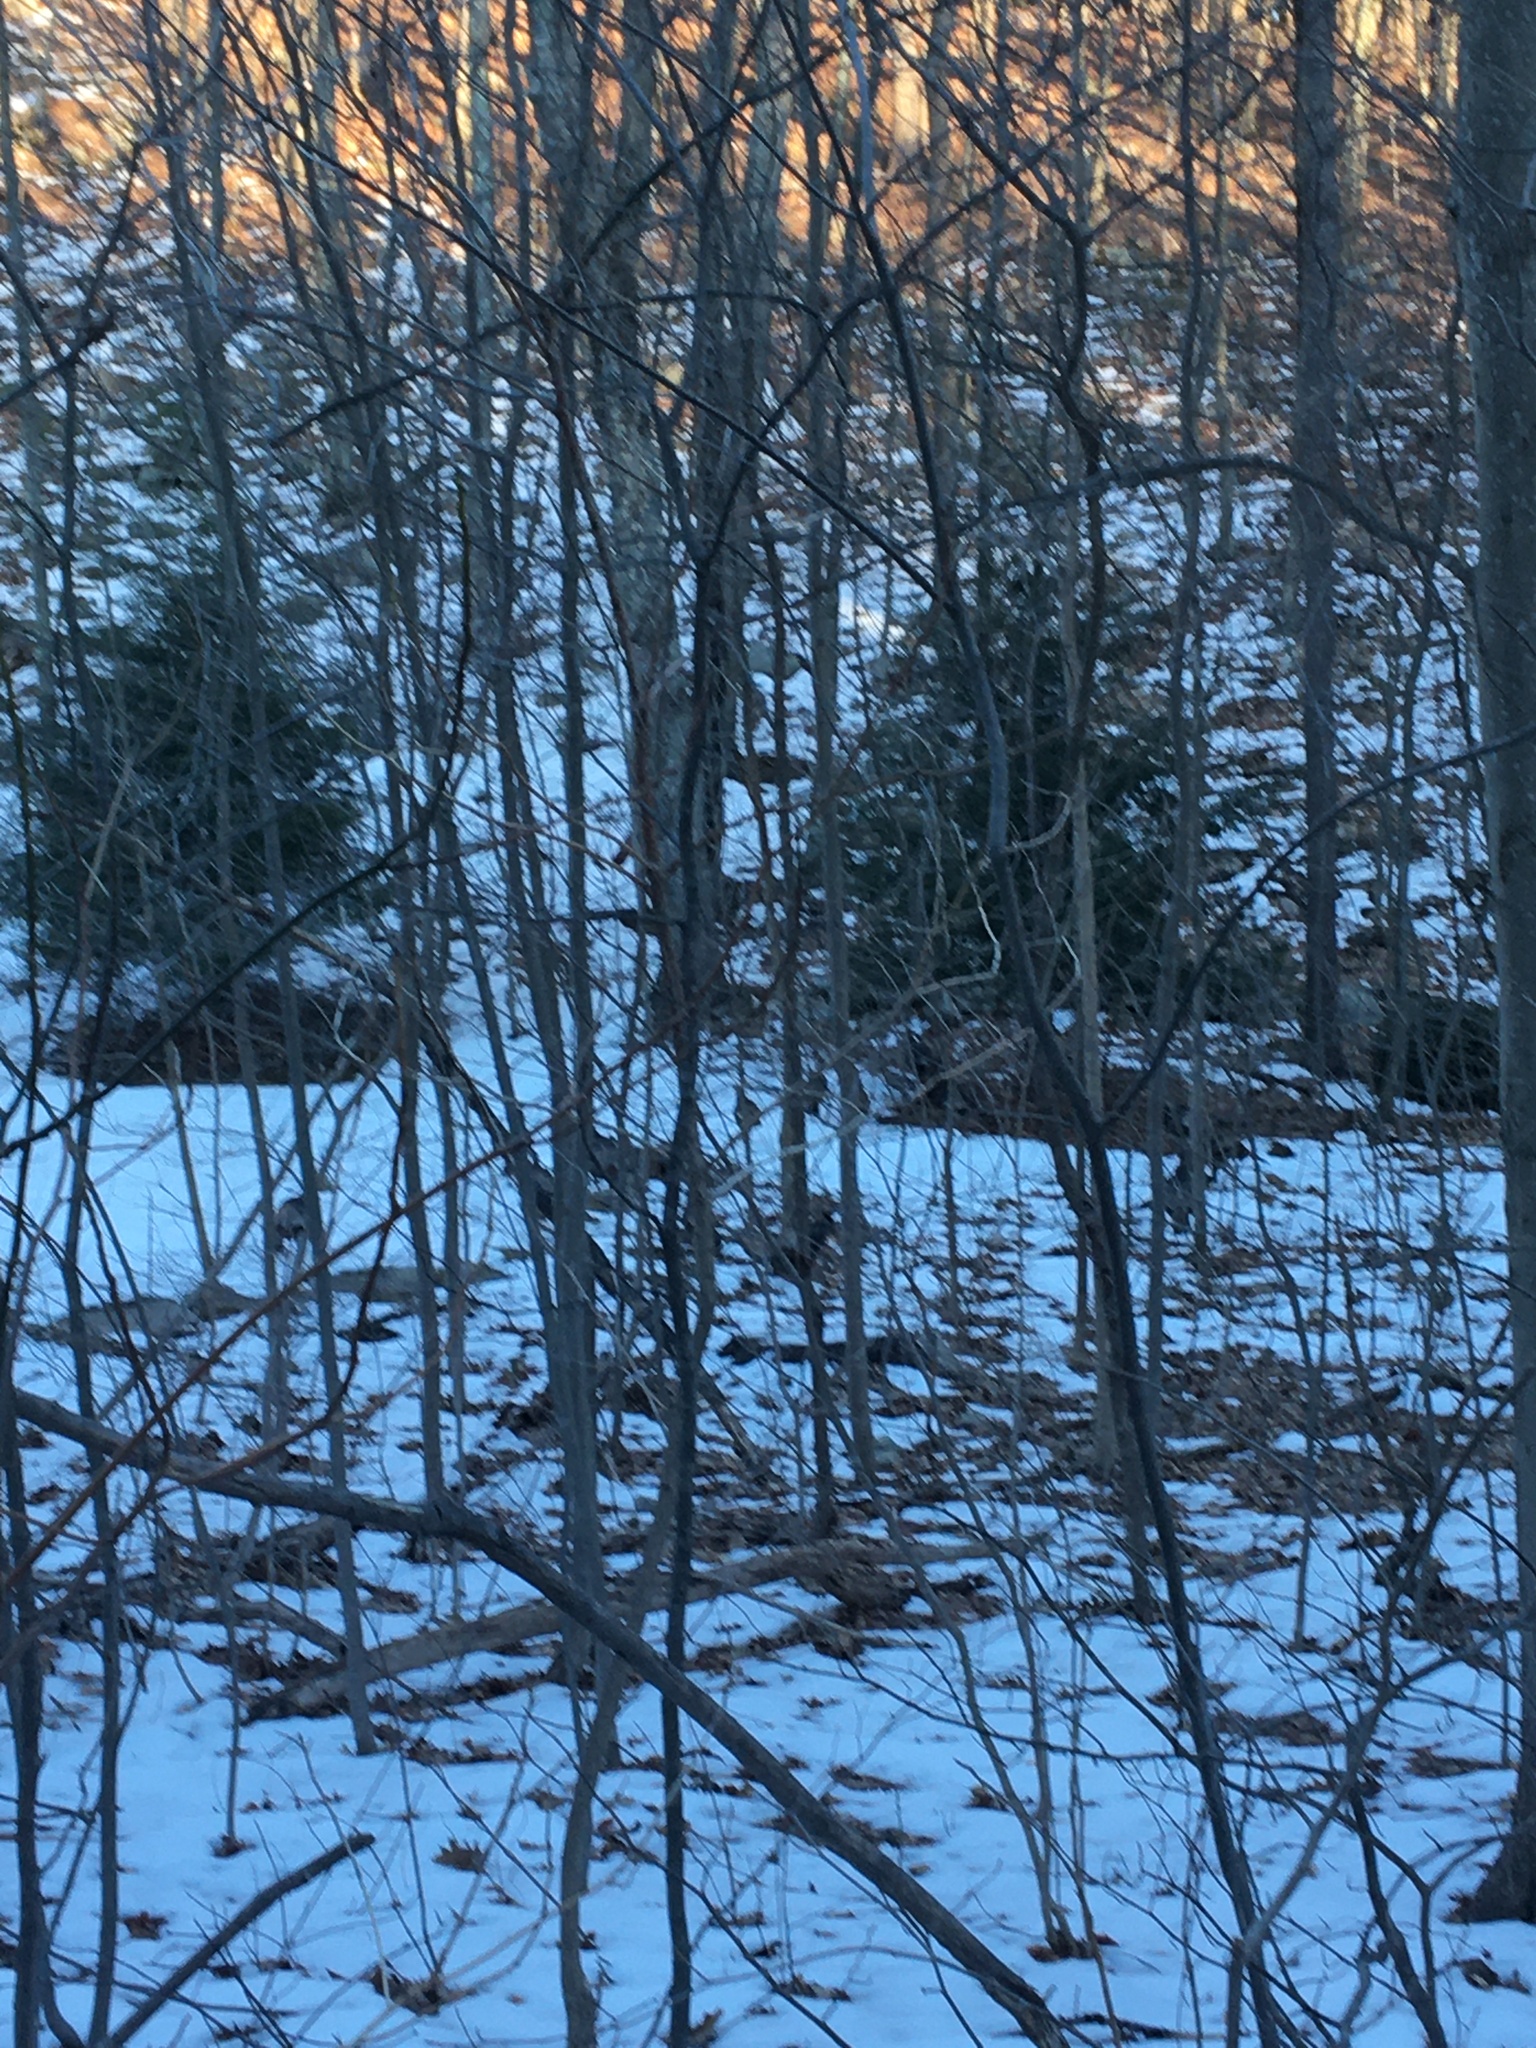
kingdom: Animalia
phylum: Chordata
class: Aves
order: Galliformes
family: Phasianidae
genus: Meleagris
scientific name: Meleagris gallopavo
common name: Wild turkey
